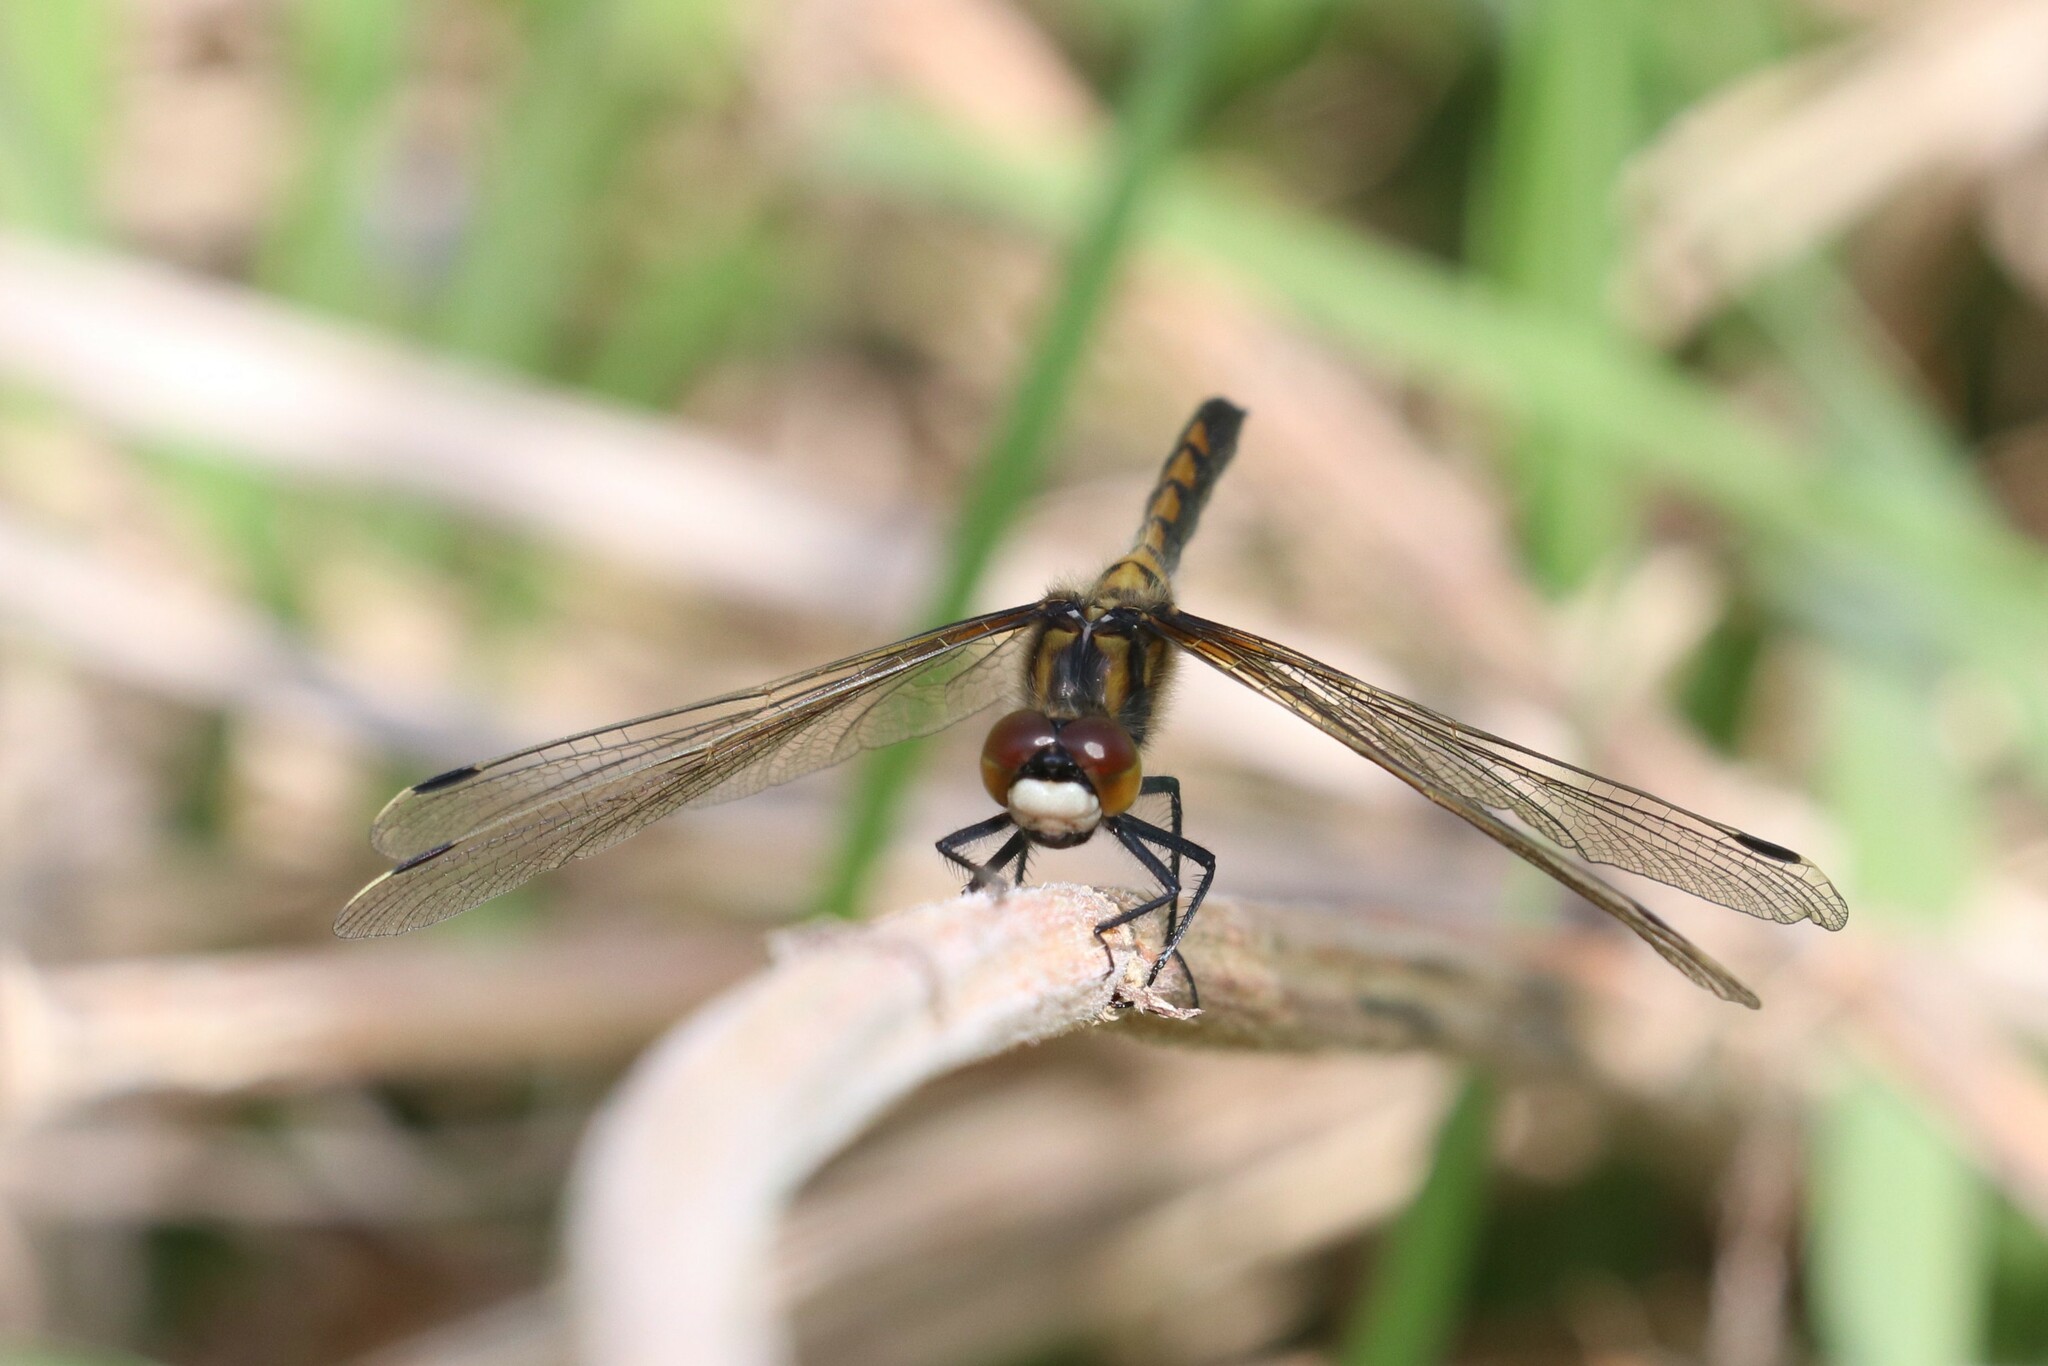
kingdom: Animalia
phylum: Arthropoda
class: Insecta
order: Odonata
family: Libellulidae
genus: Leucorrhinia
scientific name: Leucorrhinia rubicunda
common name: Ruby whiteface
